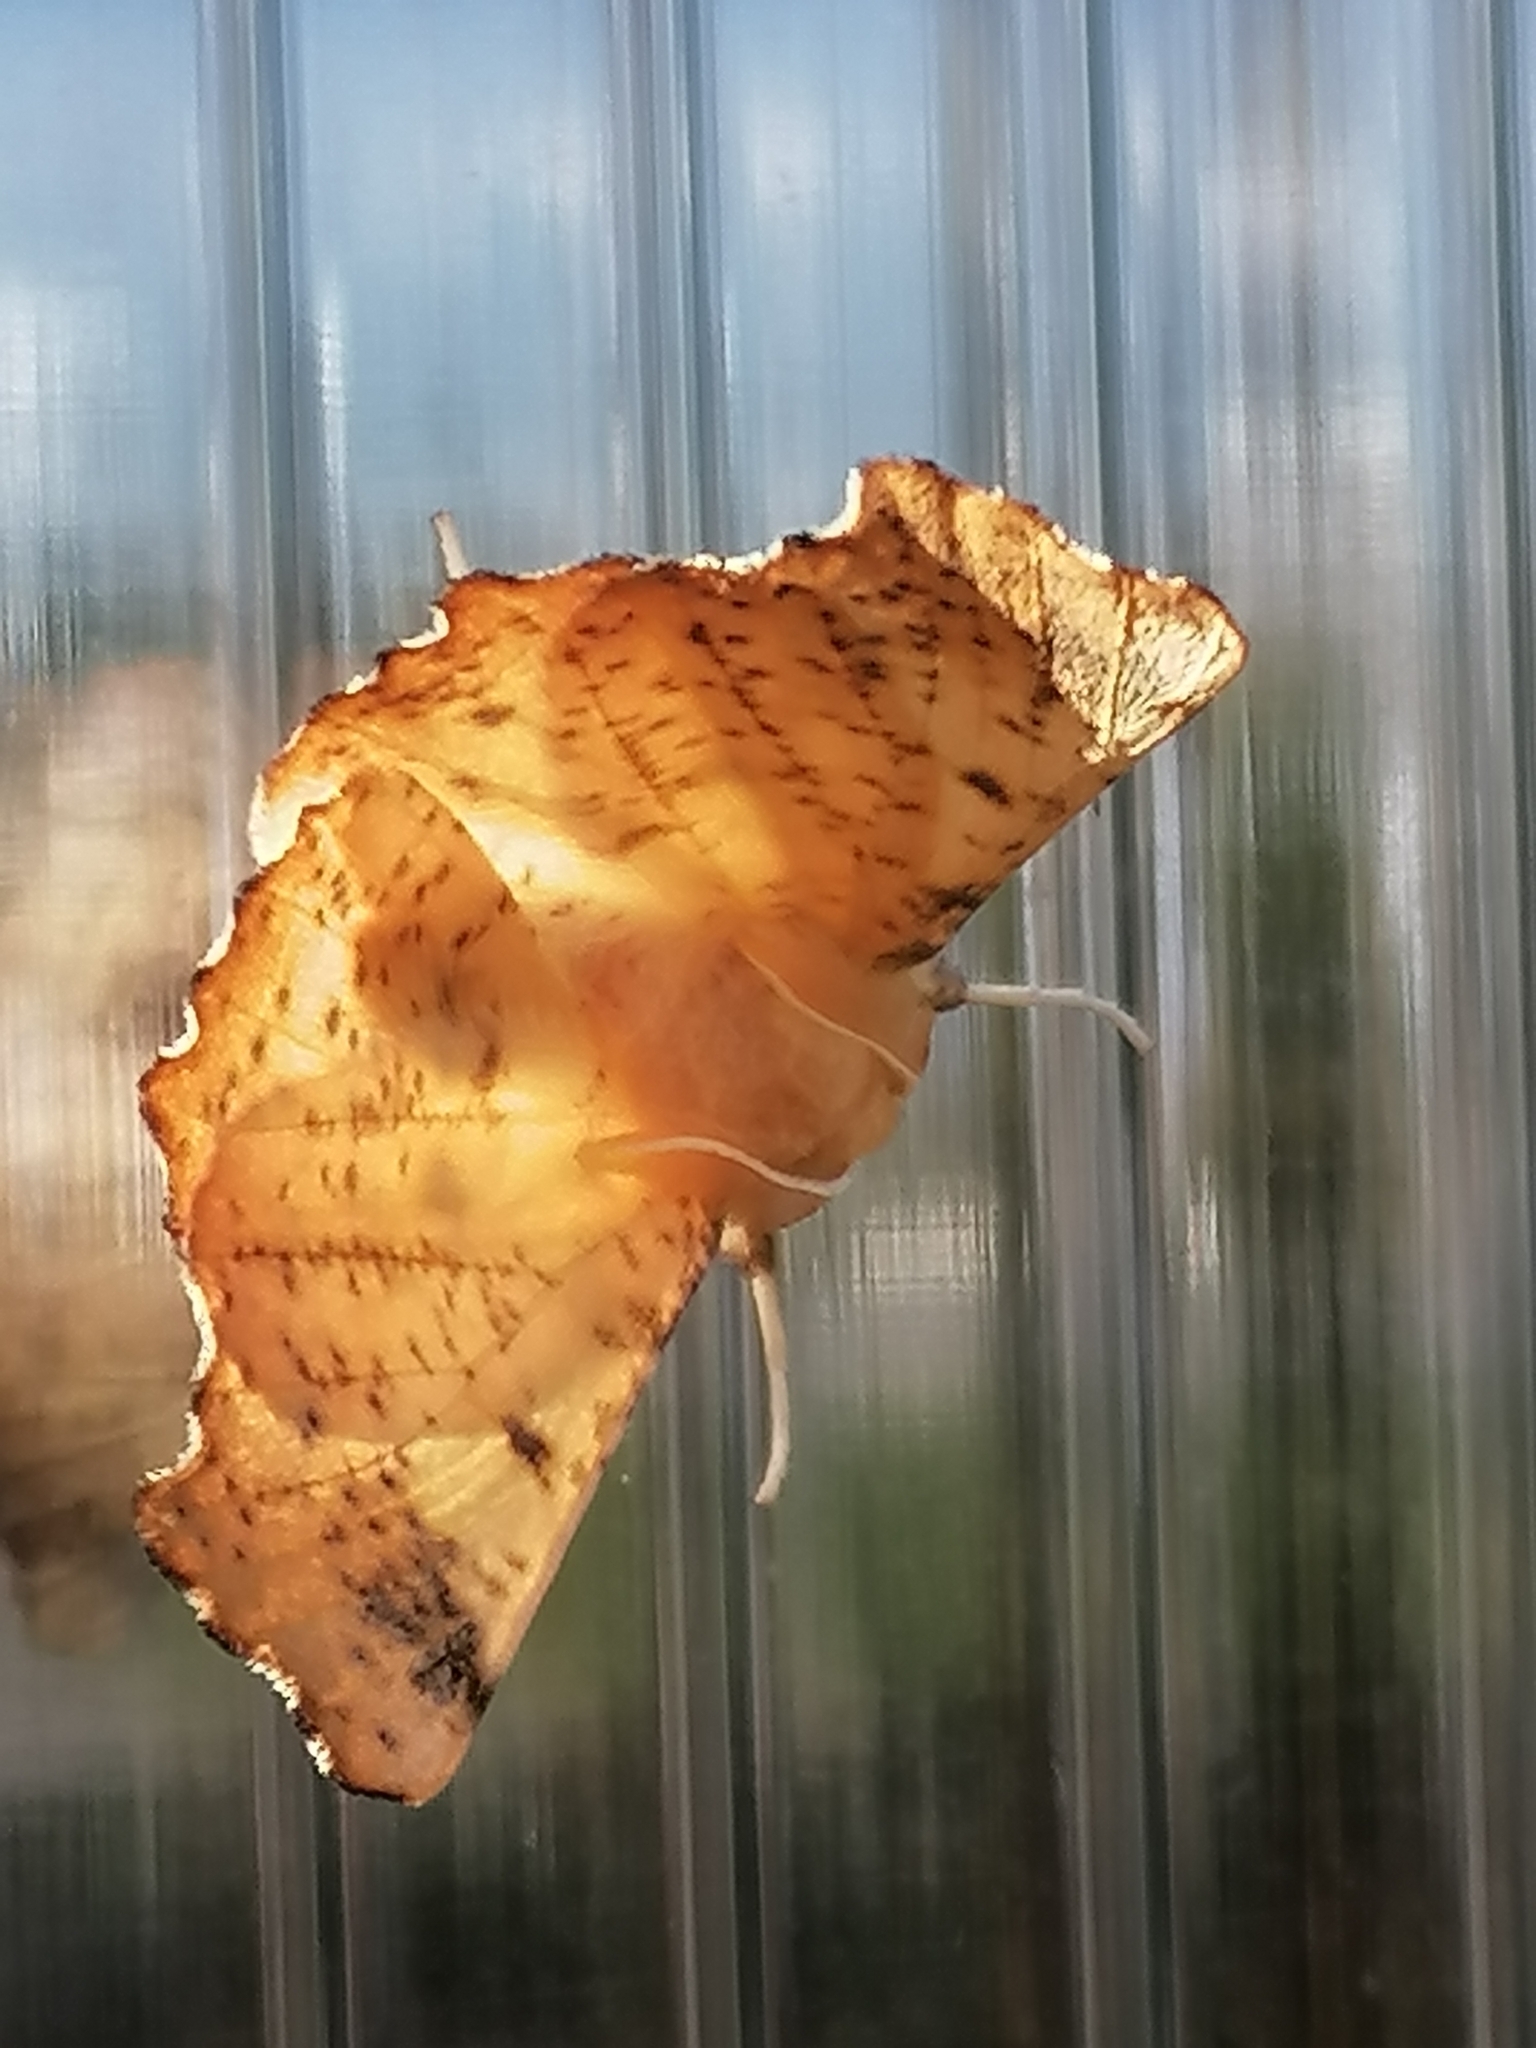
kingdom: Animalia
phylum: Arthropoda
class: Insecta
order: Lepidoptera
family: Geometridae
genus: Ennomos
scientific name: Ennomos magnaria
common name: Maple spanworm
